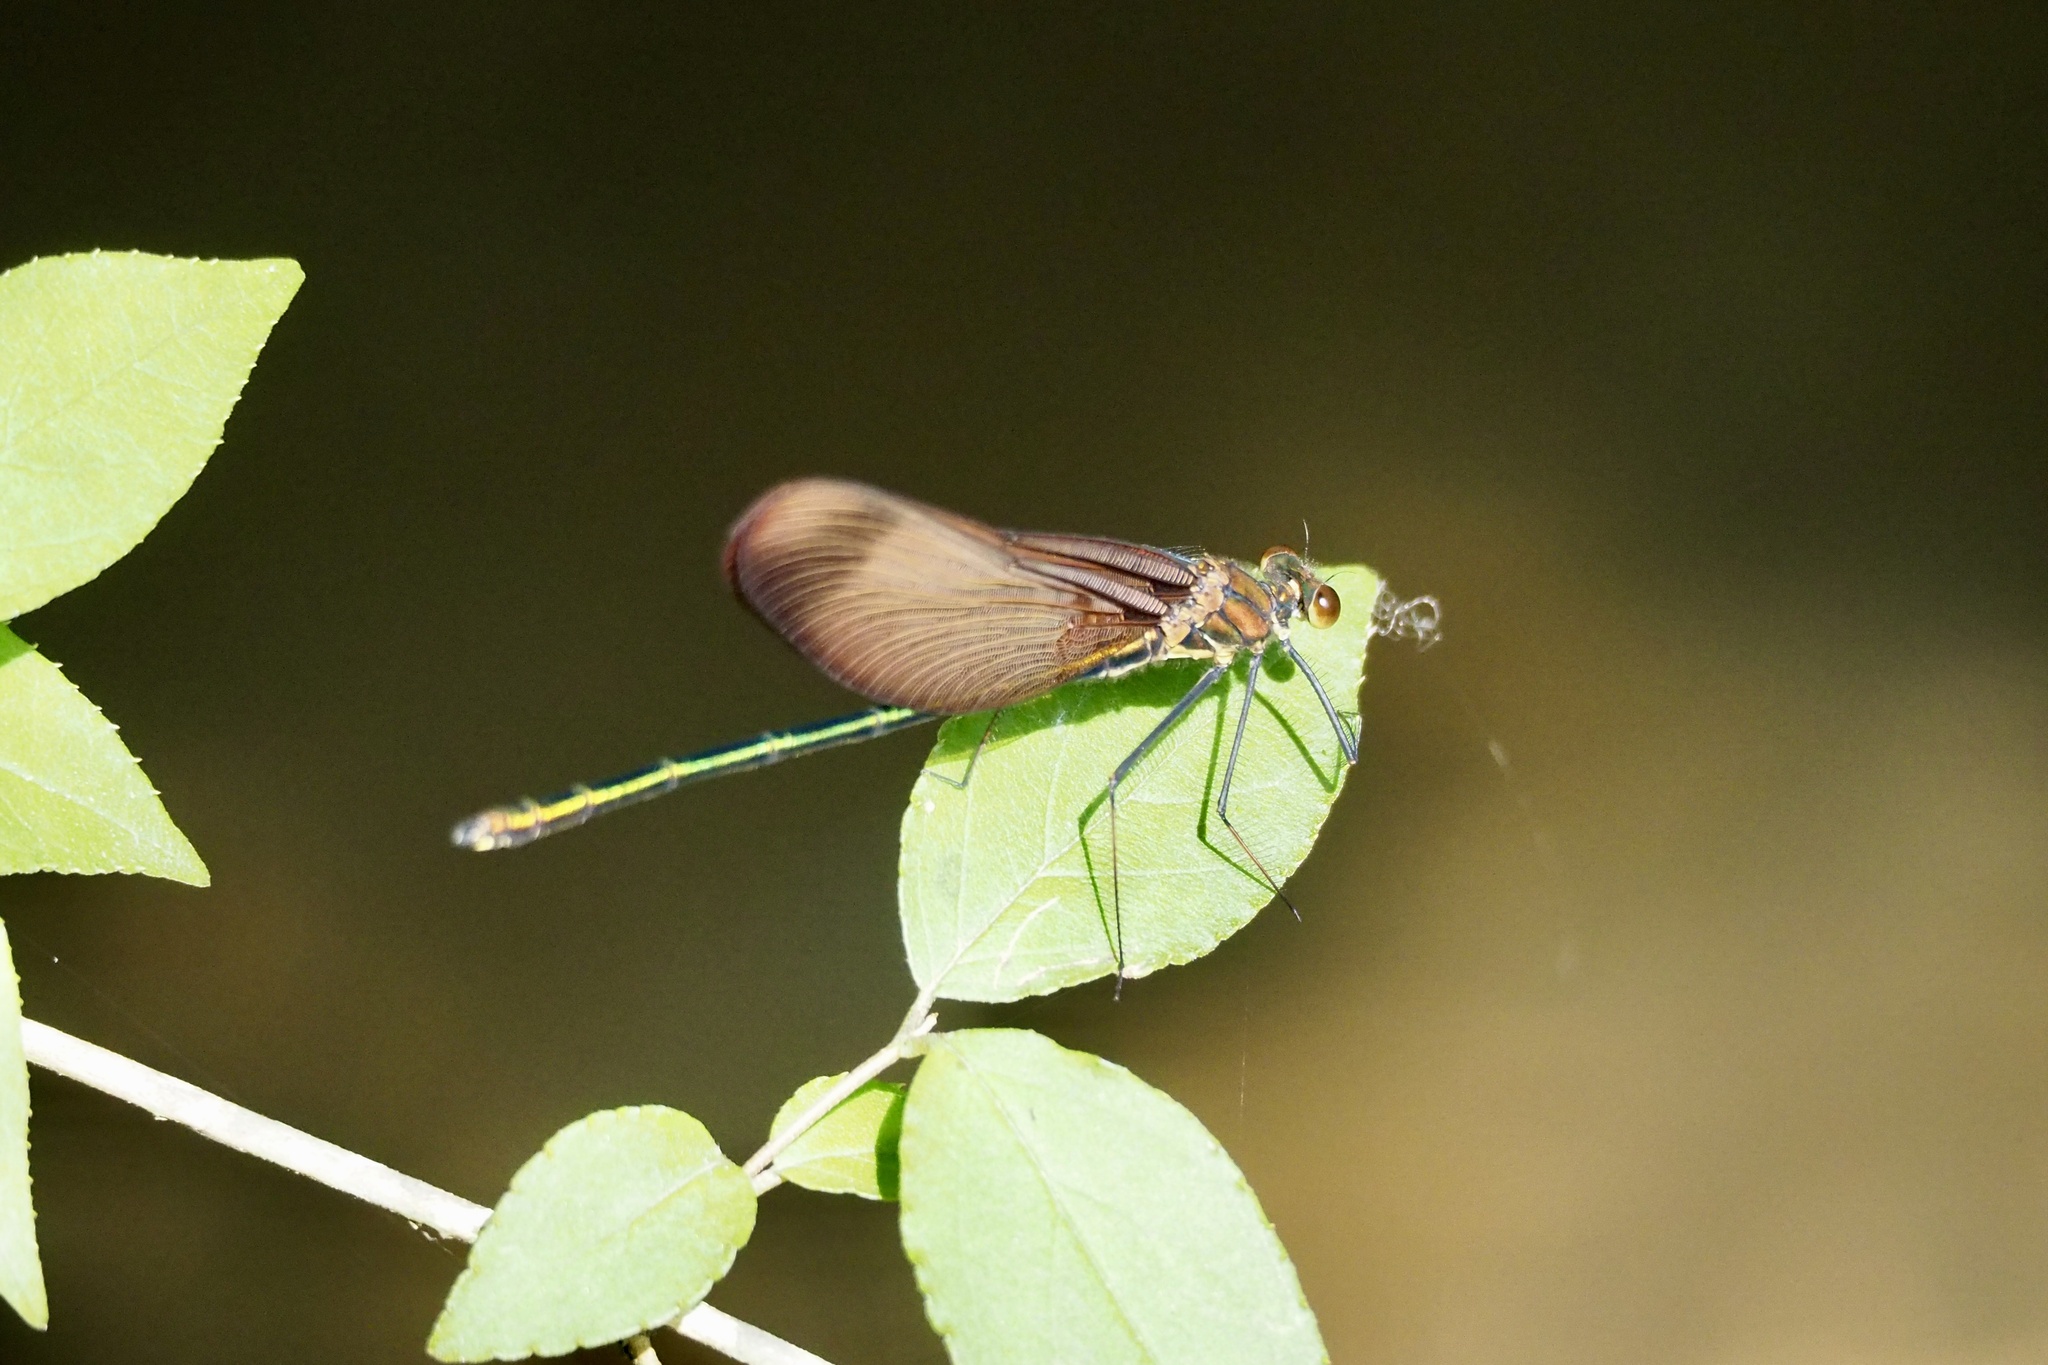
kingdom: Animalia
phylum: Arthropoda
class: Insecta
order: Odonata
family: Calopterygidae
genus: Calopteryx
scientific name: Calopteryx cornelia
